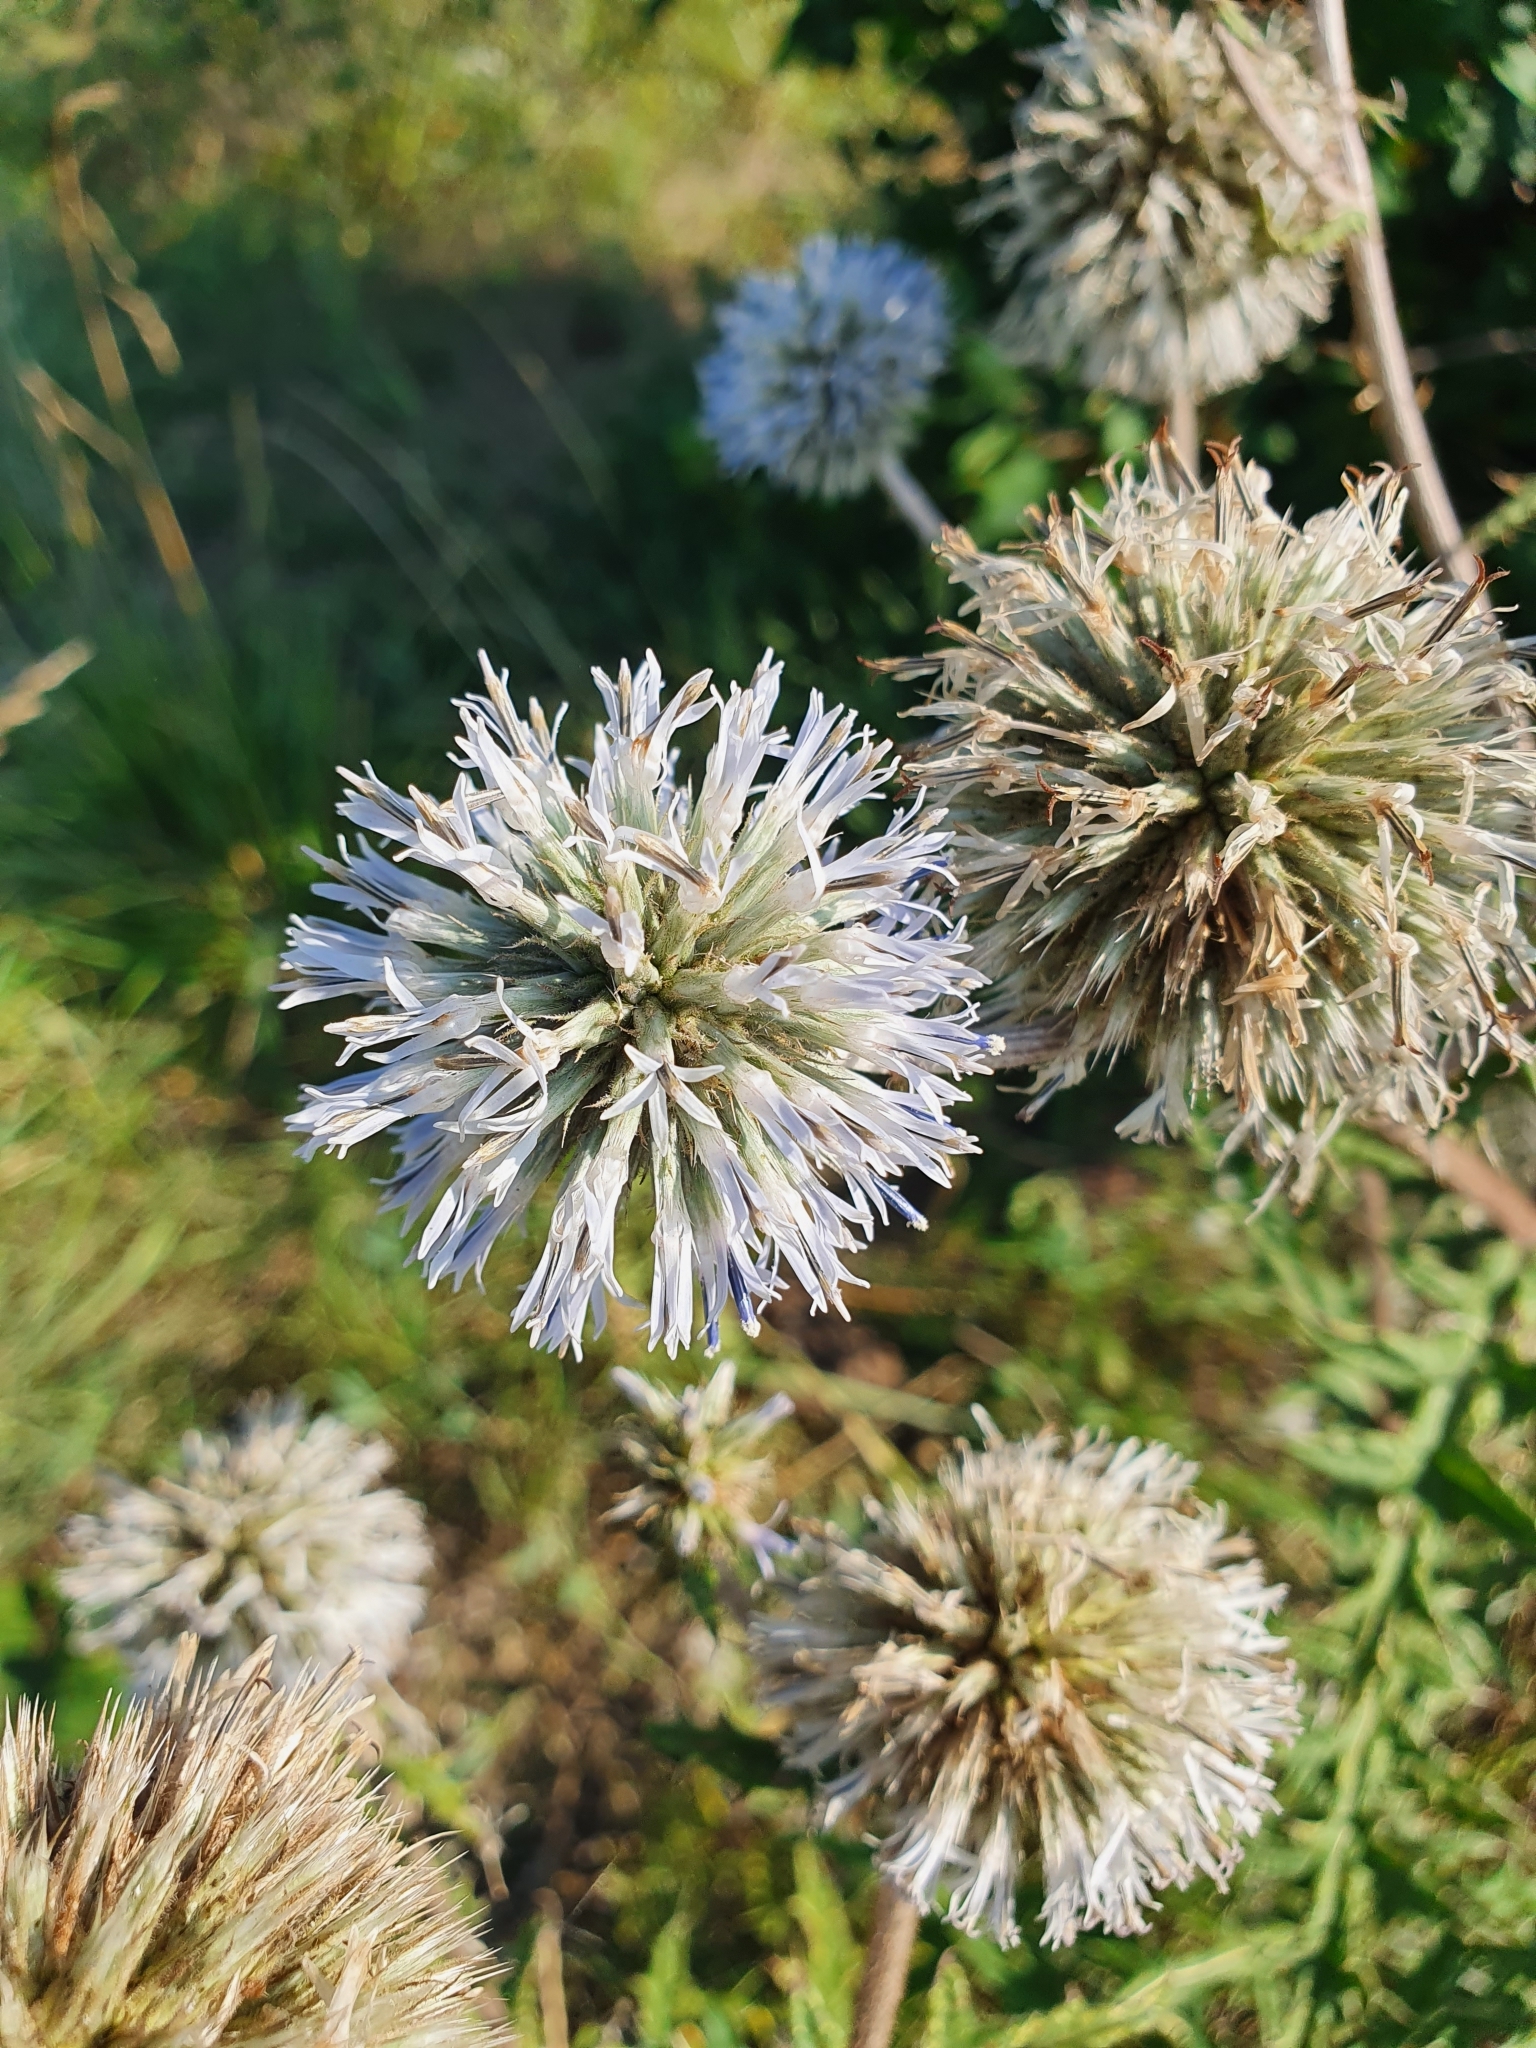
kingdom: Plantae
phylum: Tracheophyta
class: Magnoliopsida
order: Asterales
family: Asteraceae
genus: Echinops
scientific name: Echinops sphaerocephalus
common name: Glandular globe-thistle
